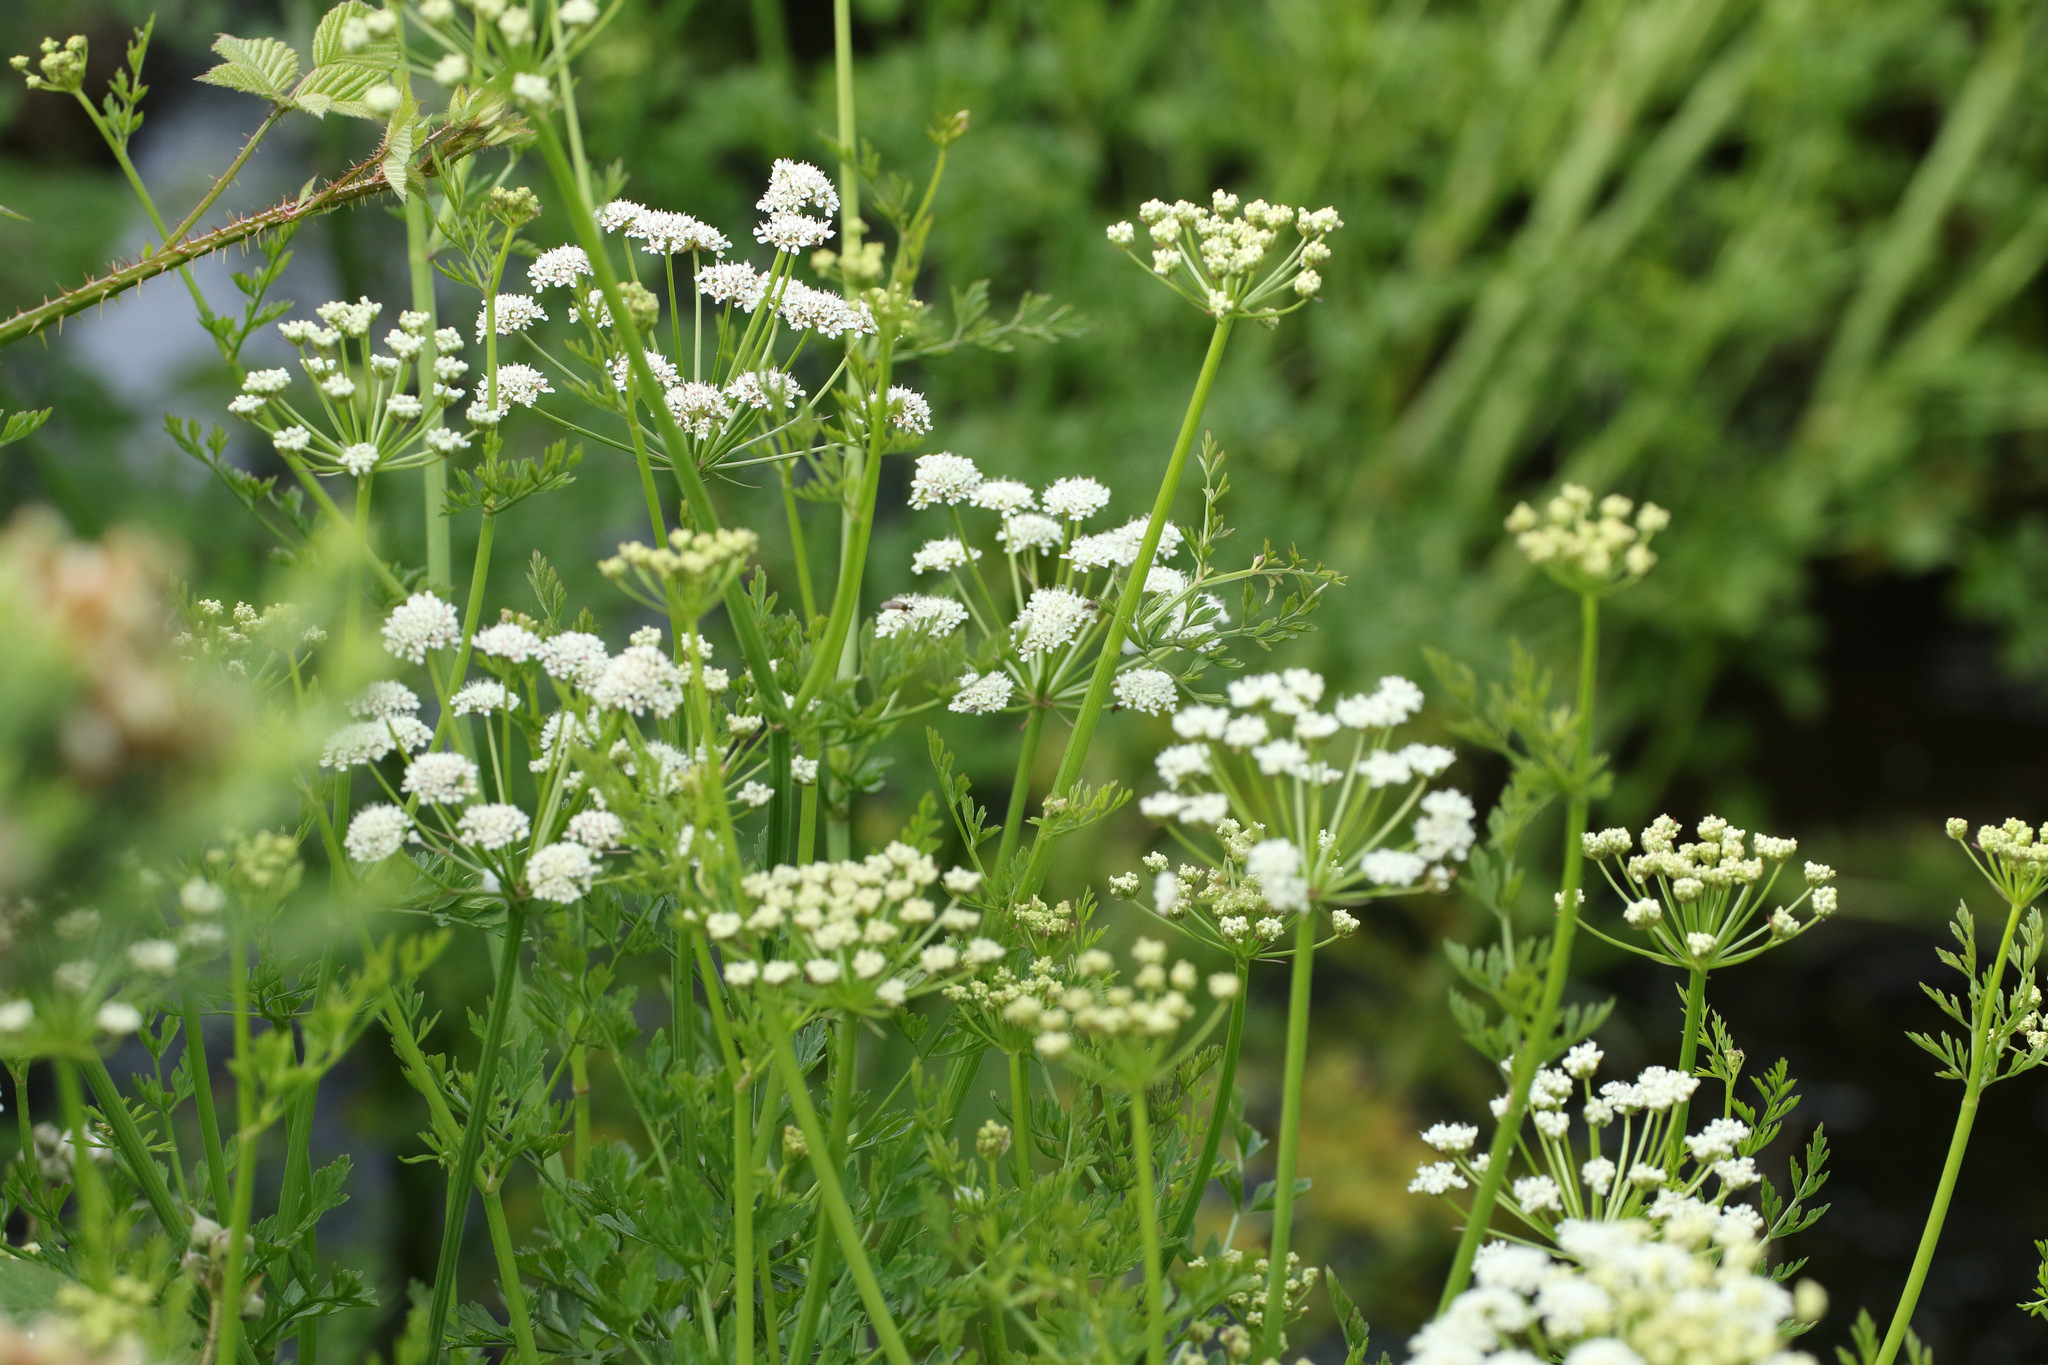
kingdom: Plantae
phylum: Tracheophyta
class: Magnoliopsida
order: Apiales
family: Apiaceae
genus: Oenanthe
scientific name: Oenanthe crocata
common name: Hemlock water-dropwort
